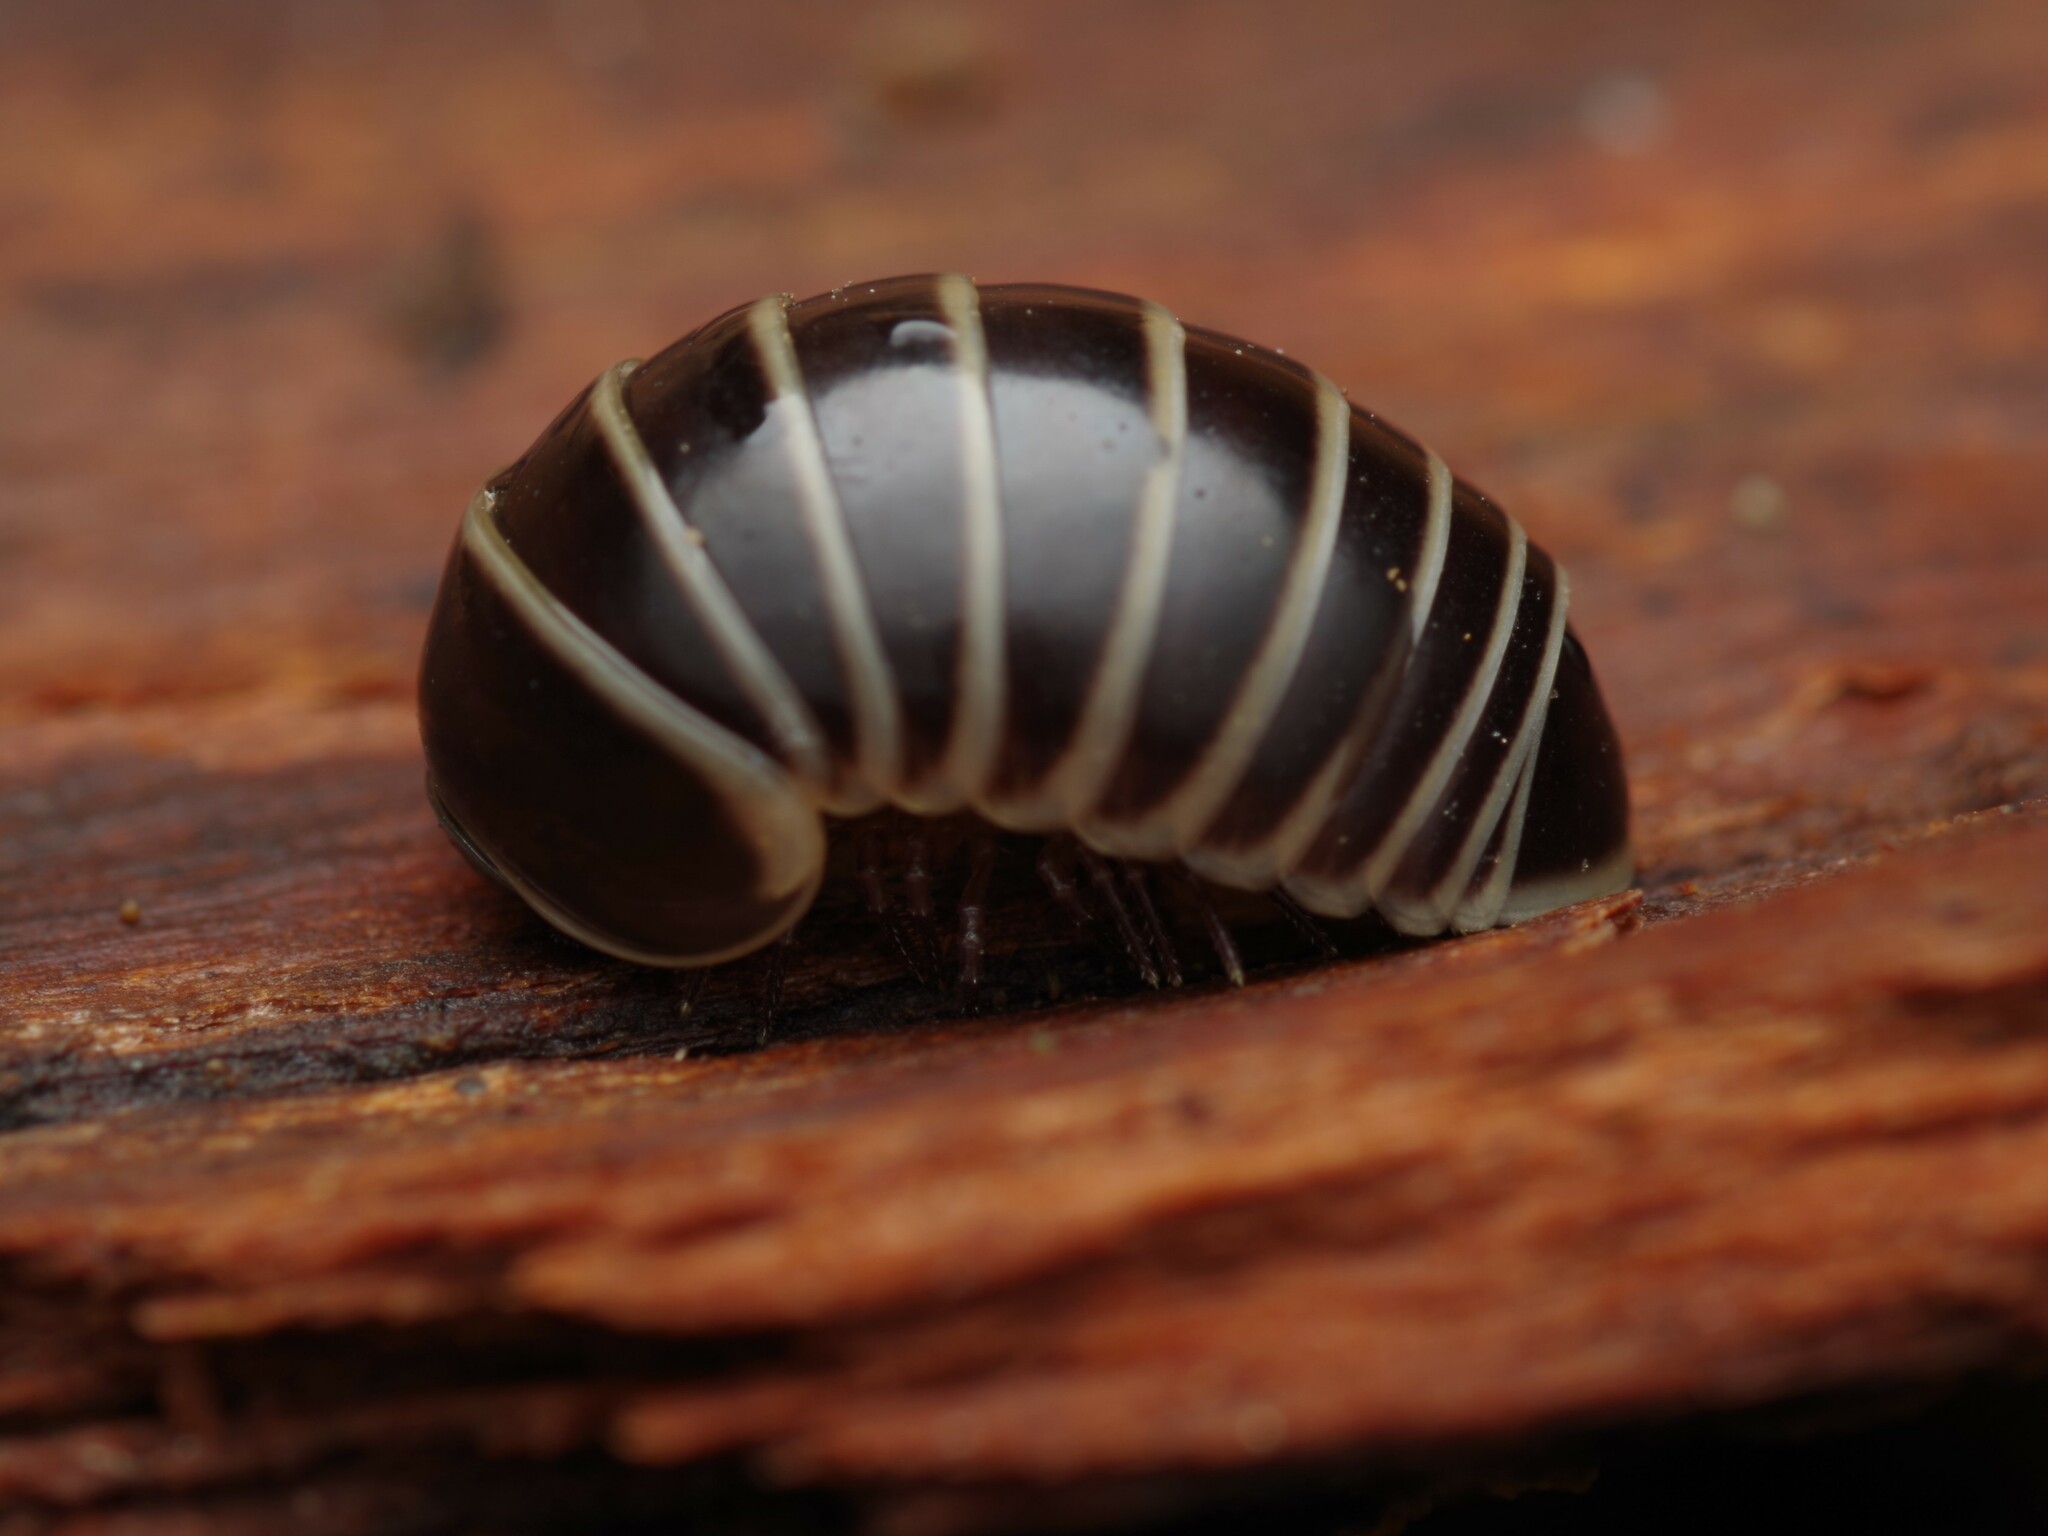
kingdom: Animalia
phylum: Arthropoda
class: Diplopoda
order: Glomerida
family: Glomeridae
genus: Glomeris
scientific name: Glomeris marginata
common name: Bordered pill millipede
